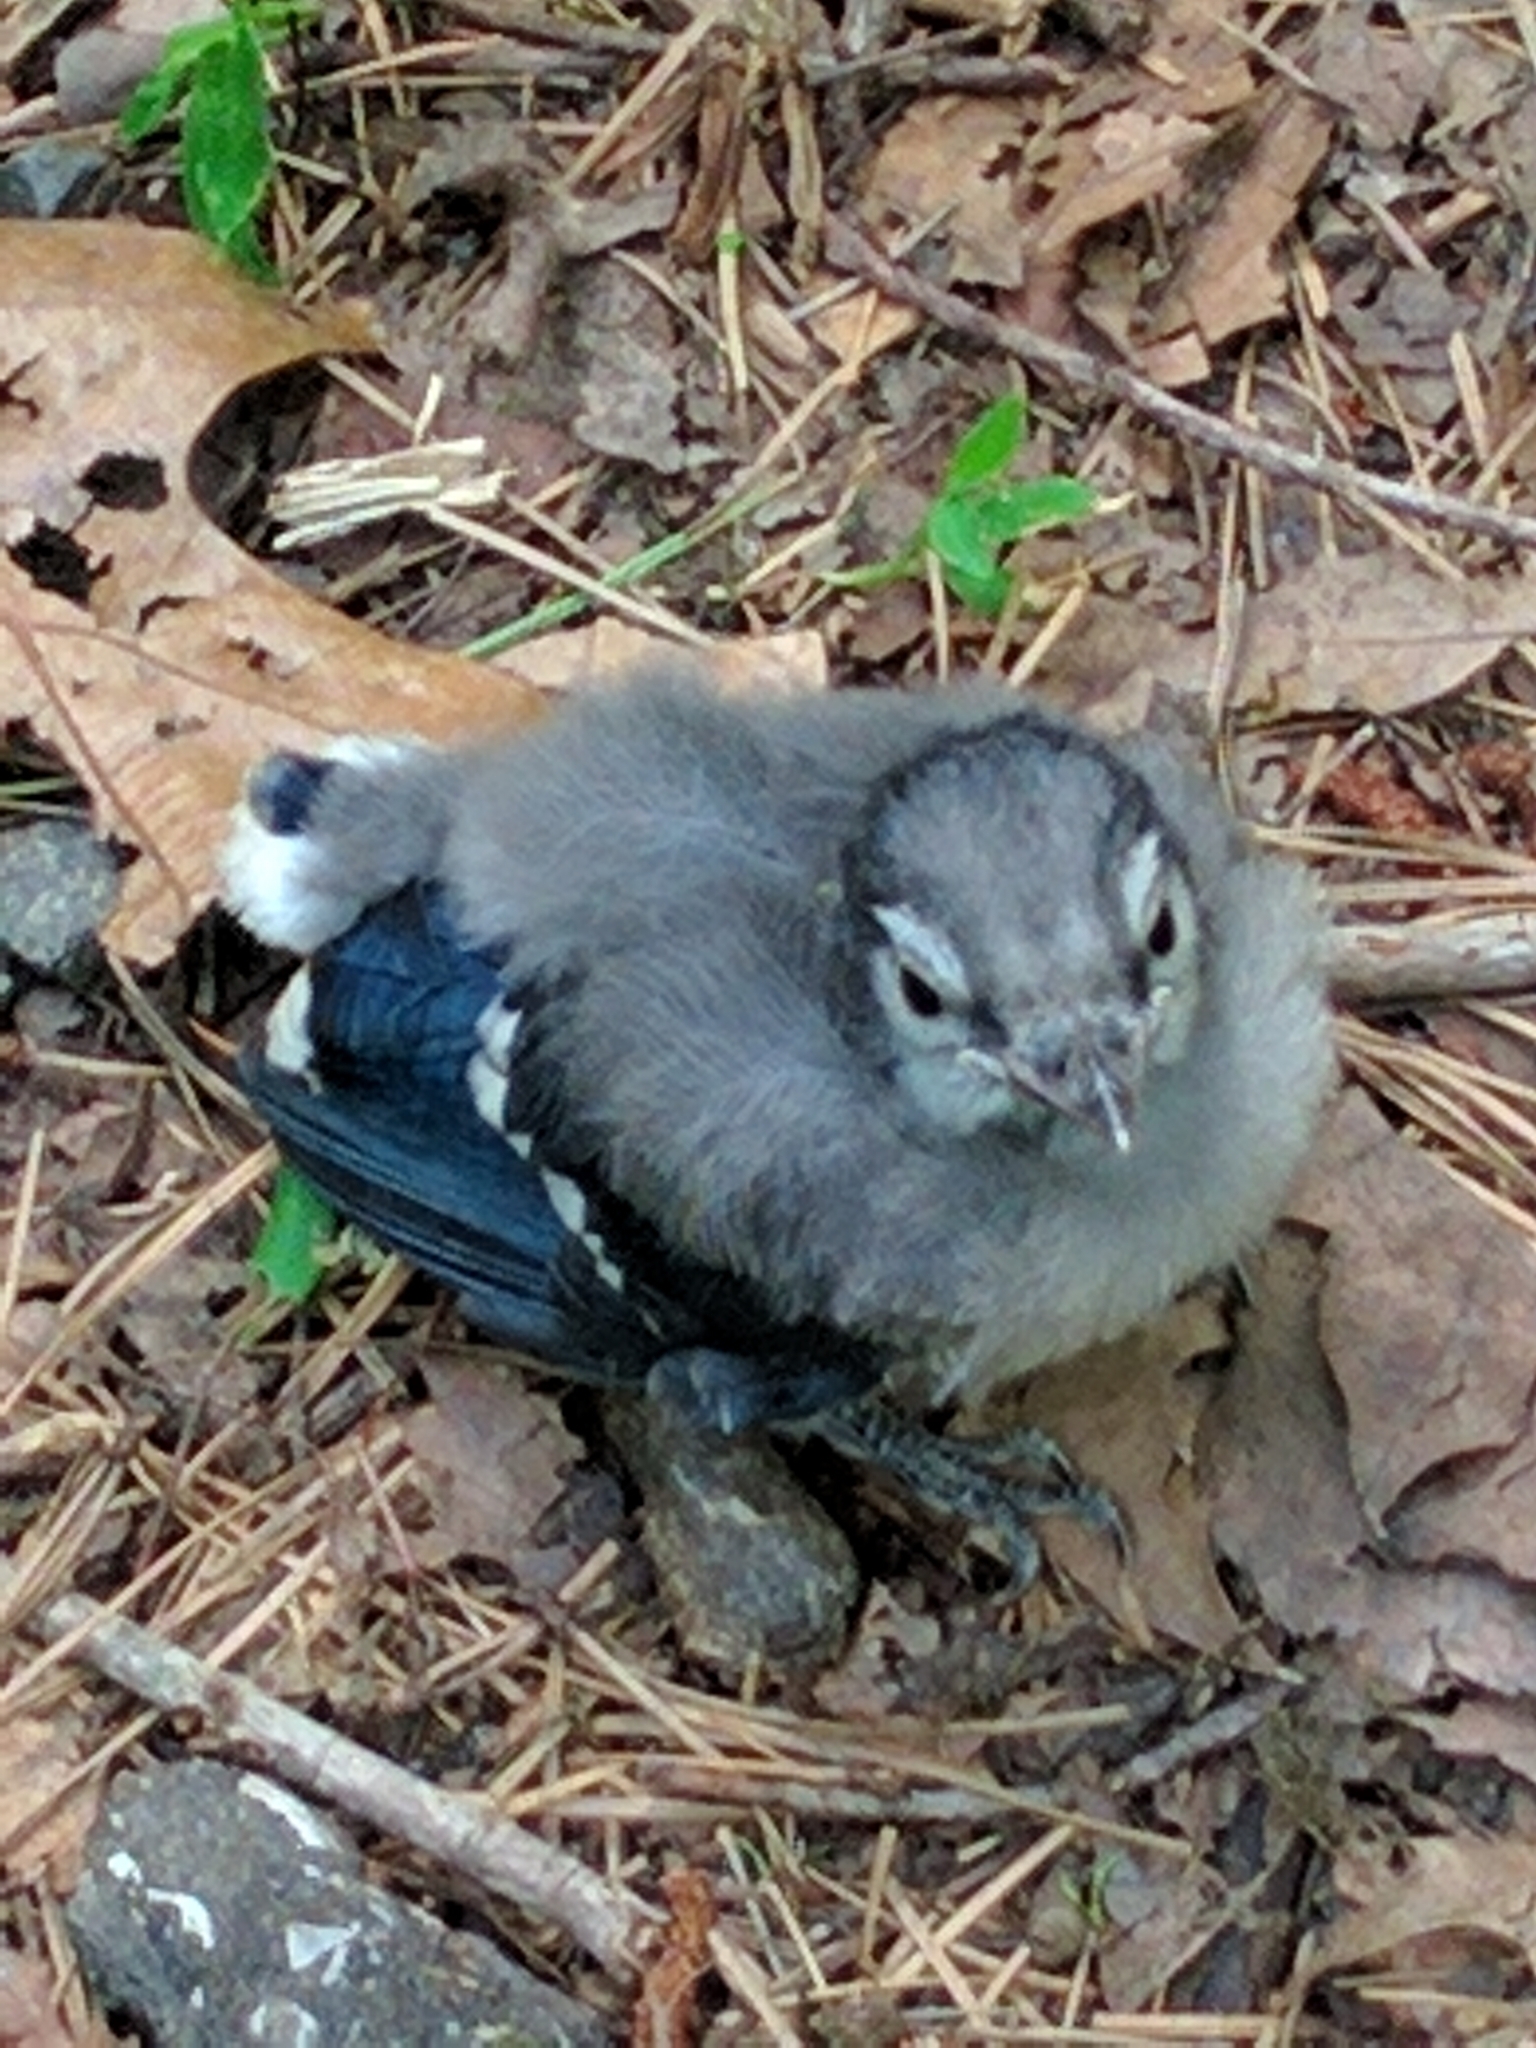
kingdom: Animalia
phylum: Chordata
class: Aves
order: Passeriformes
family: Corvidae
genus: Cyanocitta
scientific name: Cyanocitta cristata
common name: Blue jay
